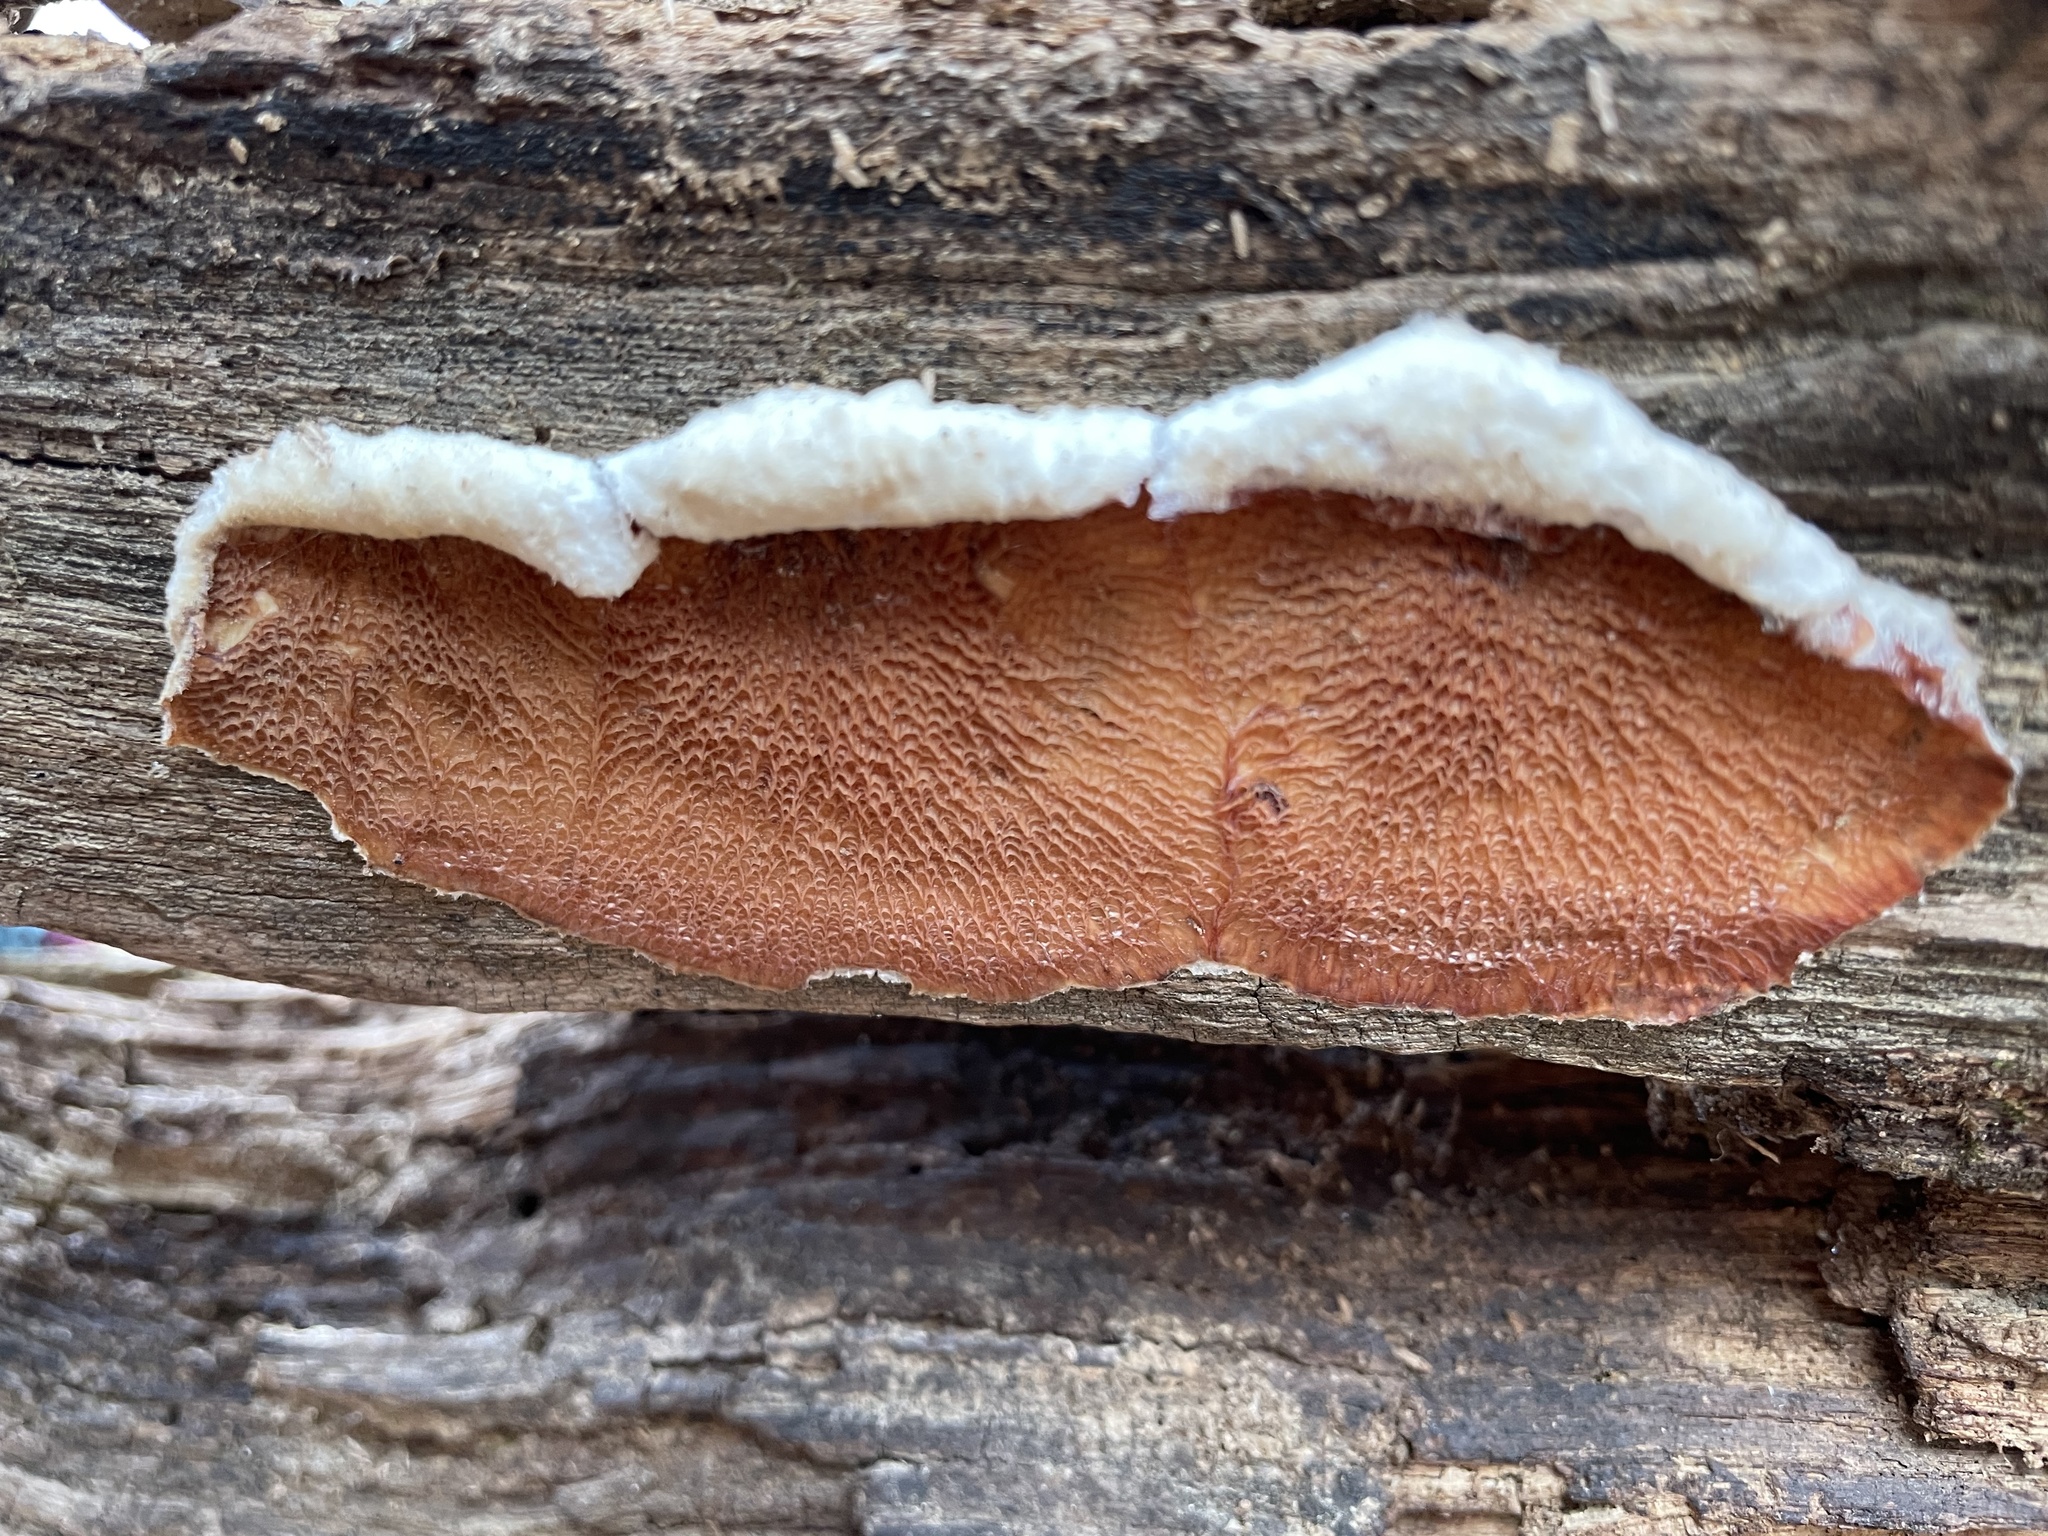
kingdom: Fungi
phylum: Basidiomycota
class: Agaricomycetes
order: Polyporales
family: Meruliaceae
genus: Phlebia
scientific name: Phlebia tremellosa
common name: Jelly rot
